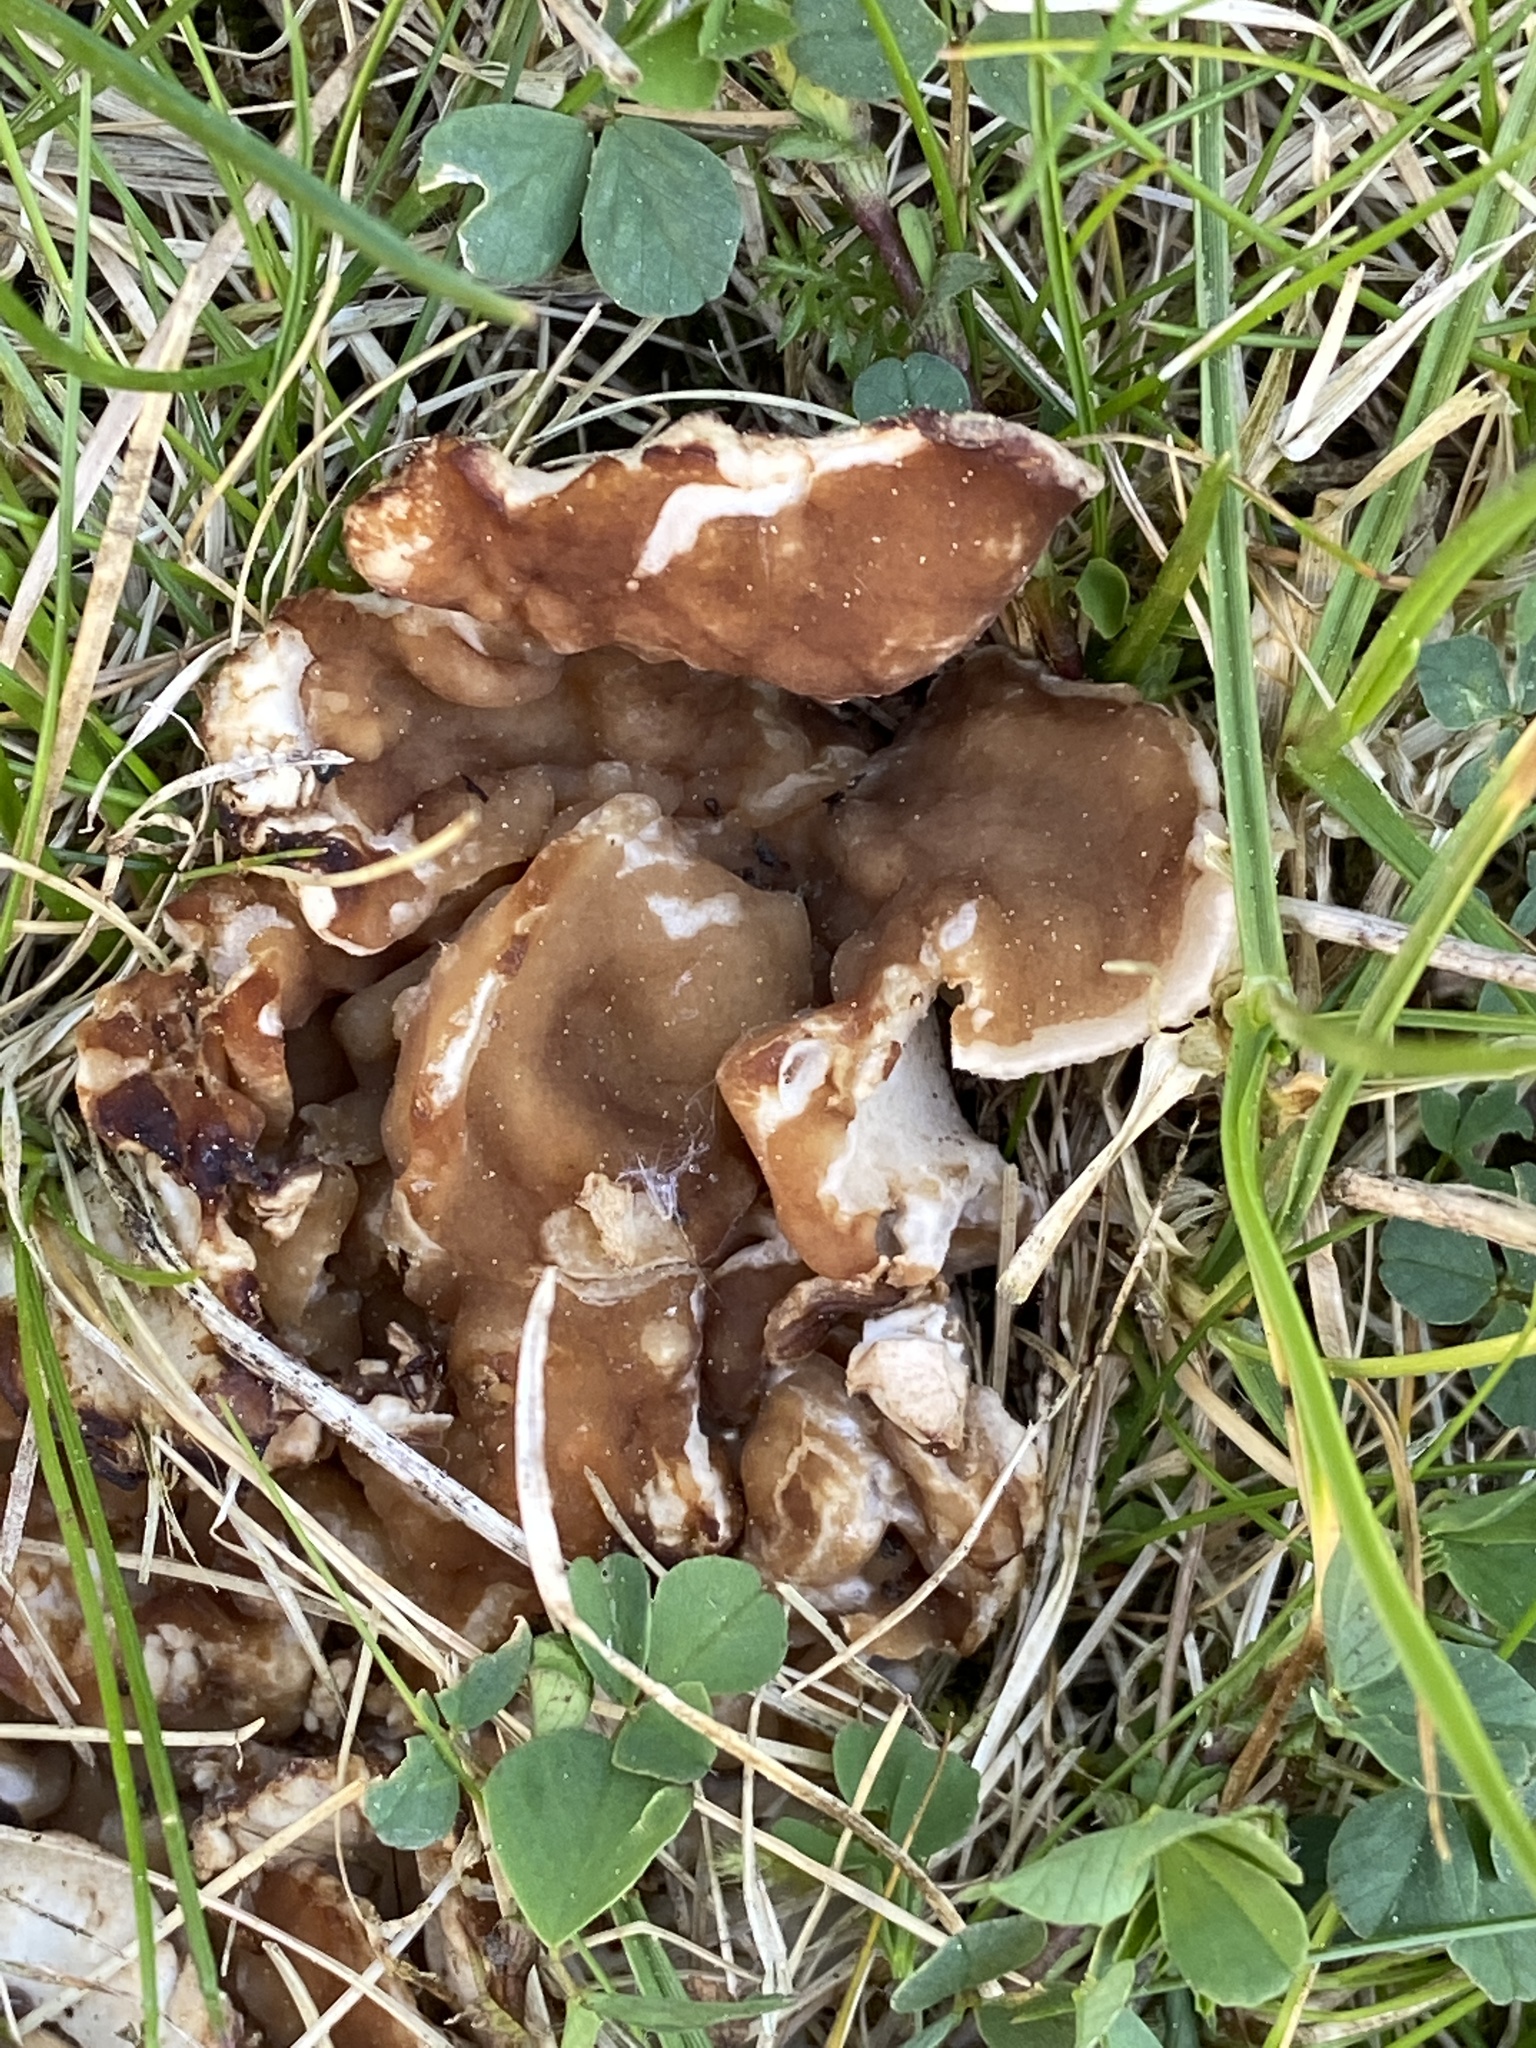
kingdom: Fungi
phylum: Ascomycota
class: Pezizomycetes
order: Pezizales
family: Morchellaceae
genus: Disciotis
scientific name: Disciotis venosa
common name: Bleach cup
